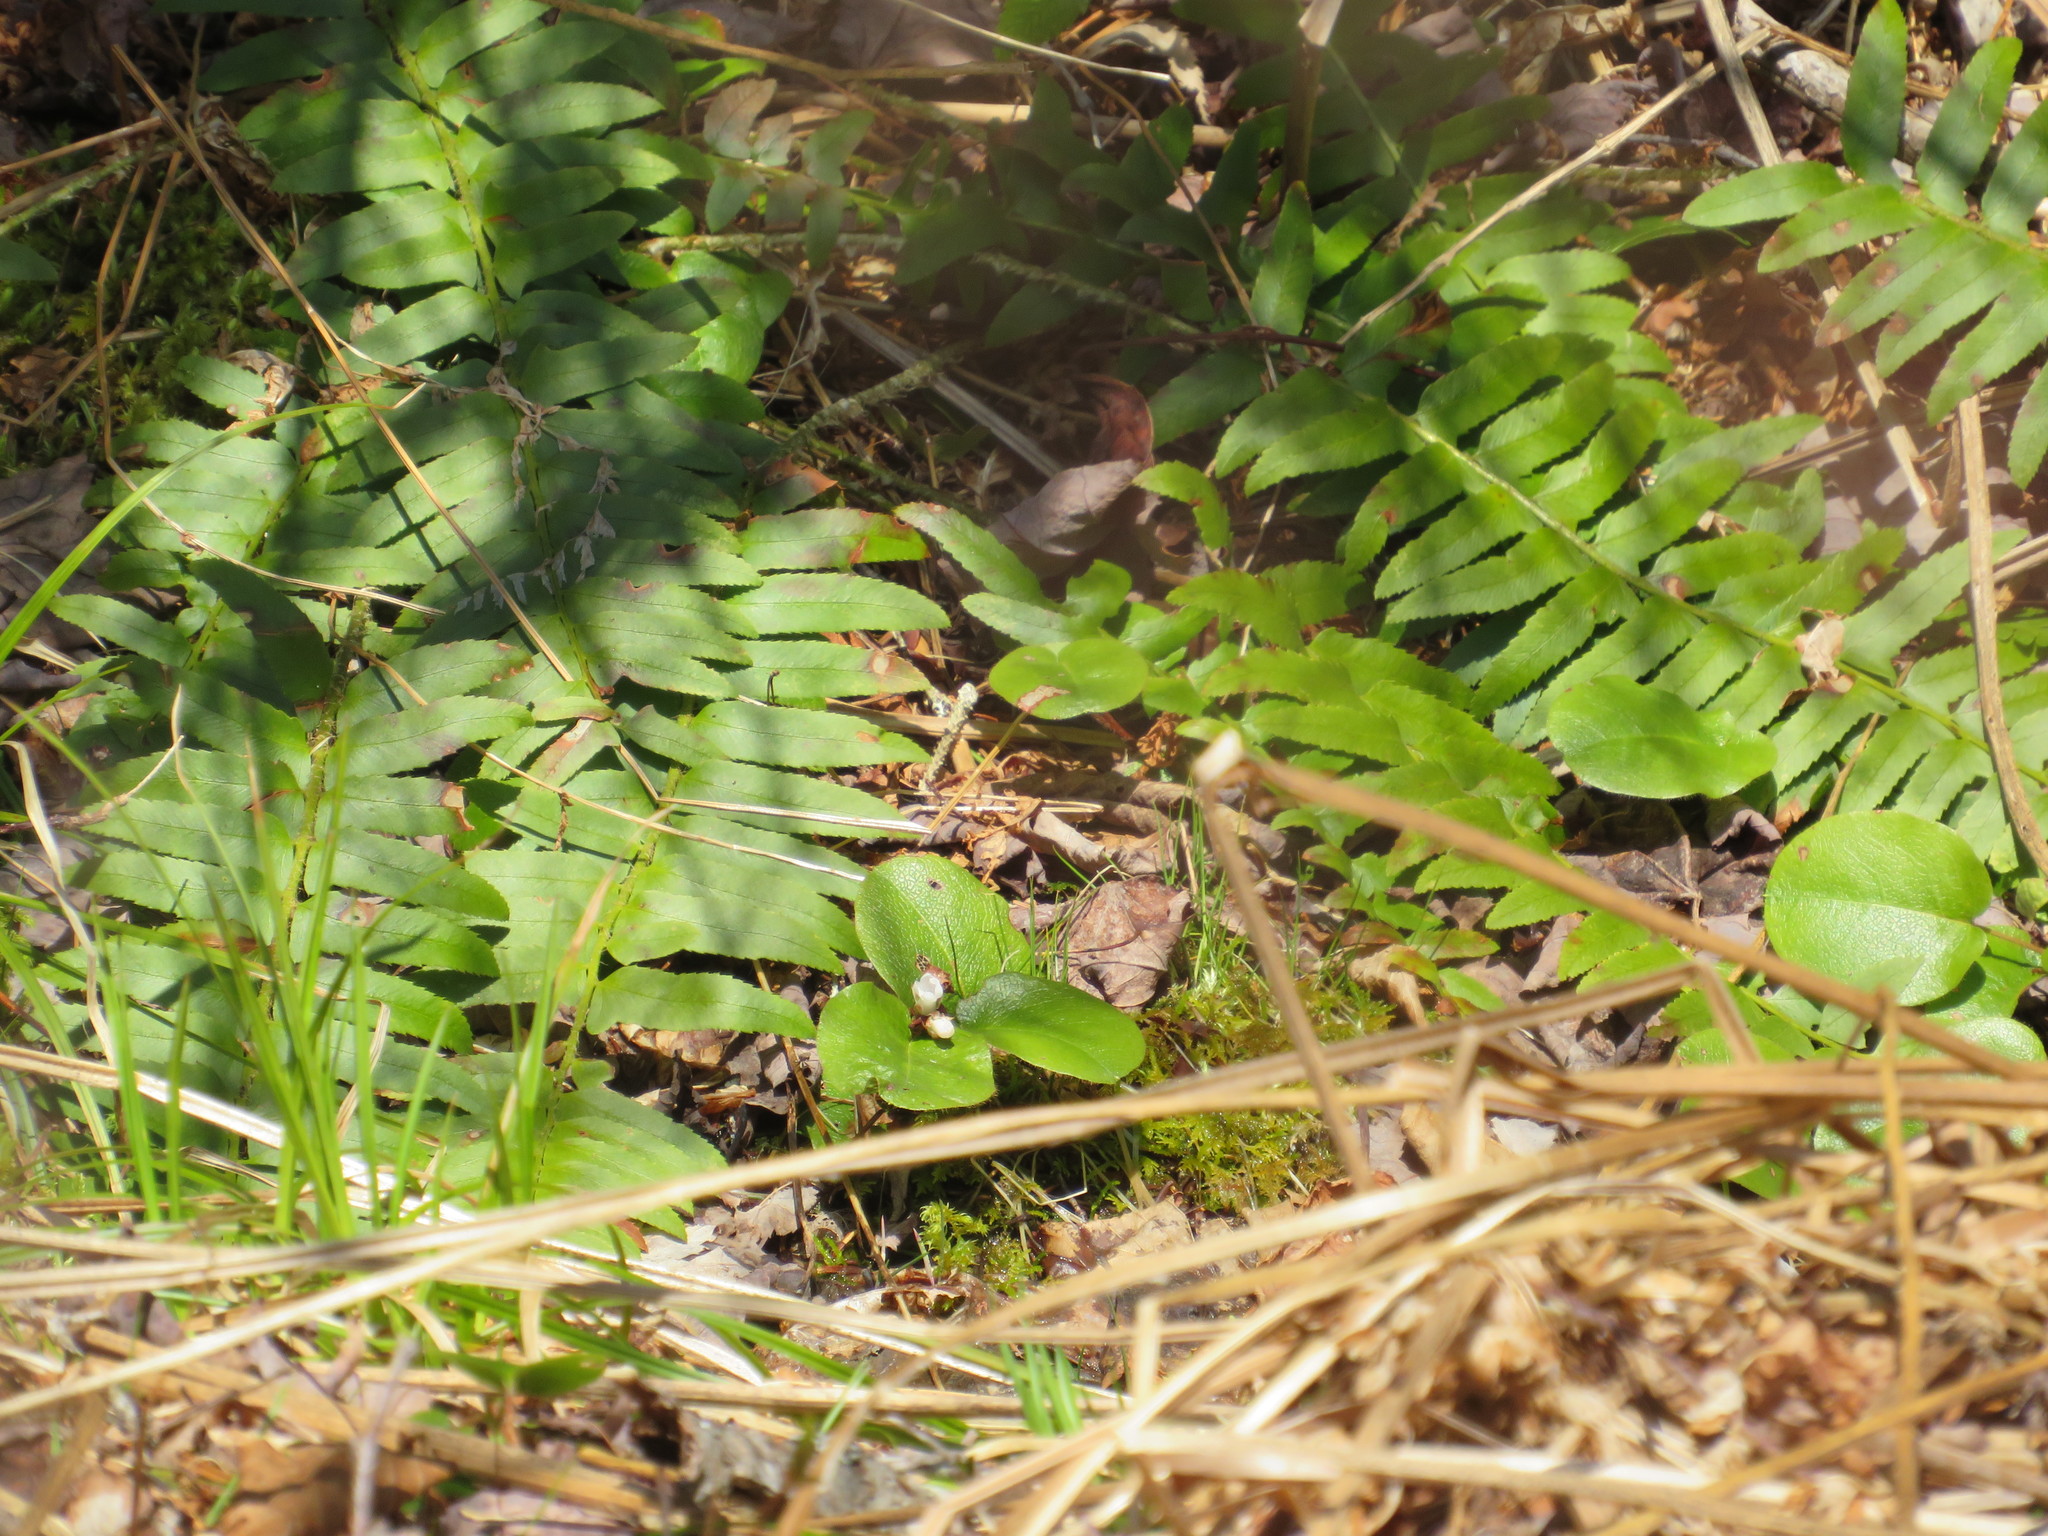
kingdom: Plantae
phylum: Tracheophyta
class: Polypodiopsida
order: Polypodiales
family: Dryopteridaceae
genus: Polystichum
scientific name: Polystichum acrostichoides
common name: Christmas fern
